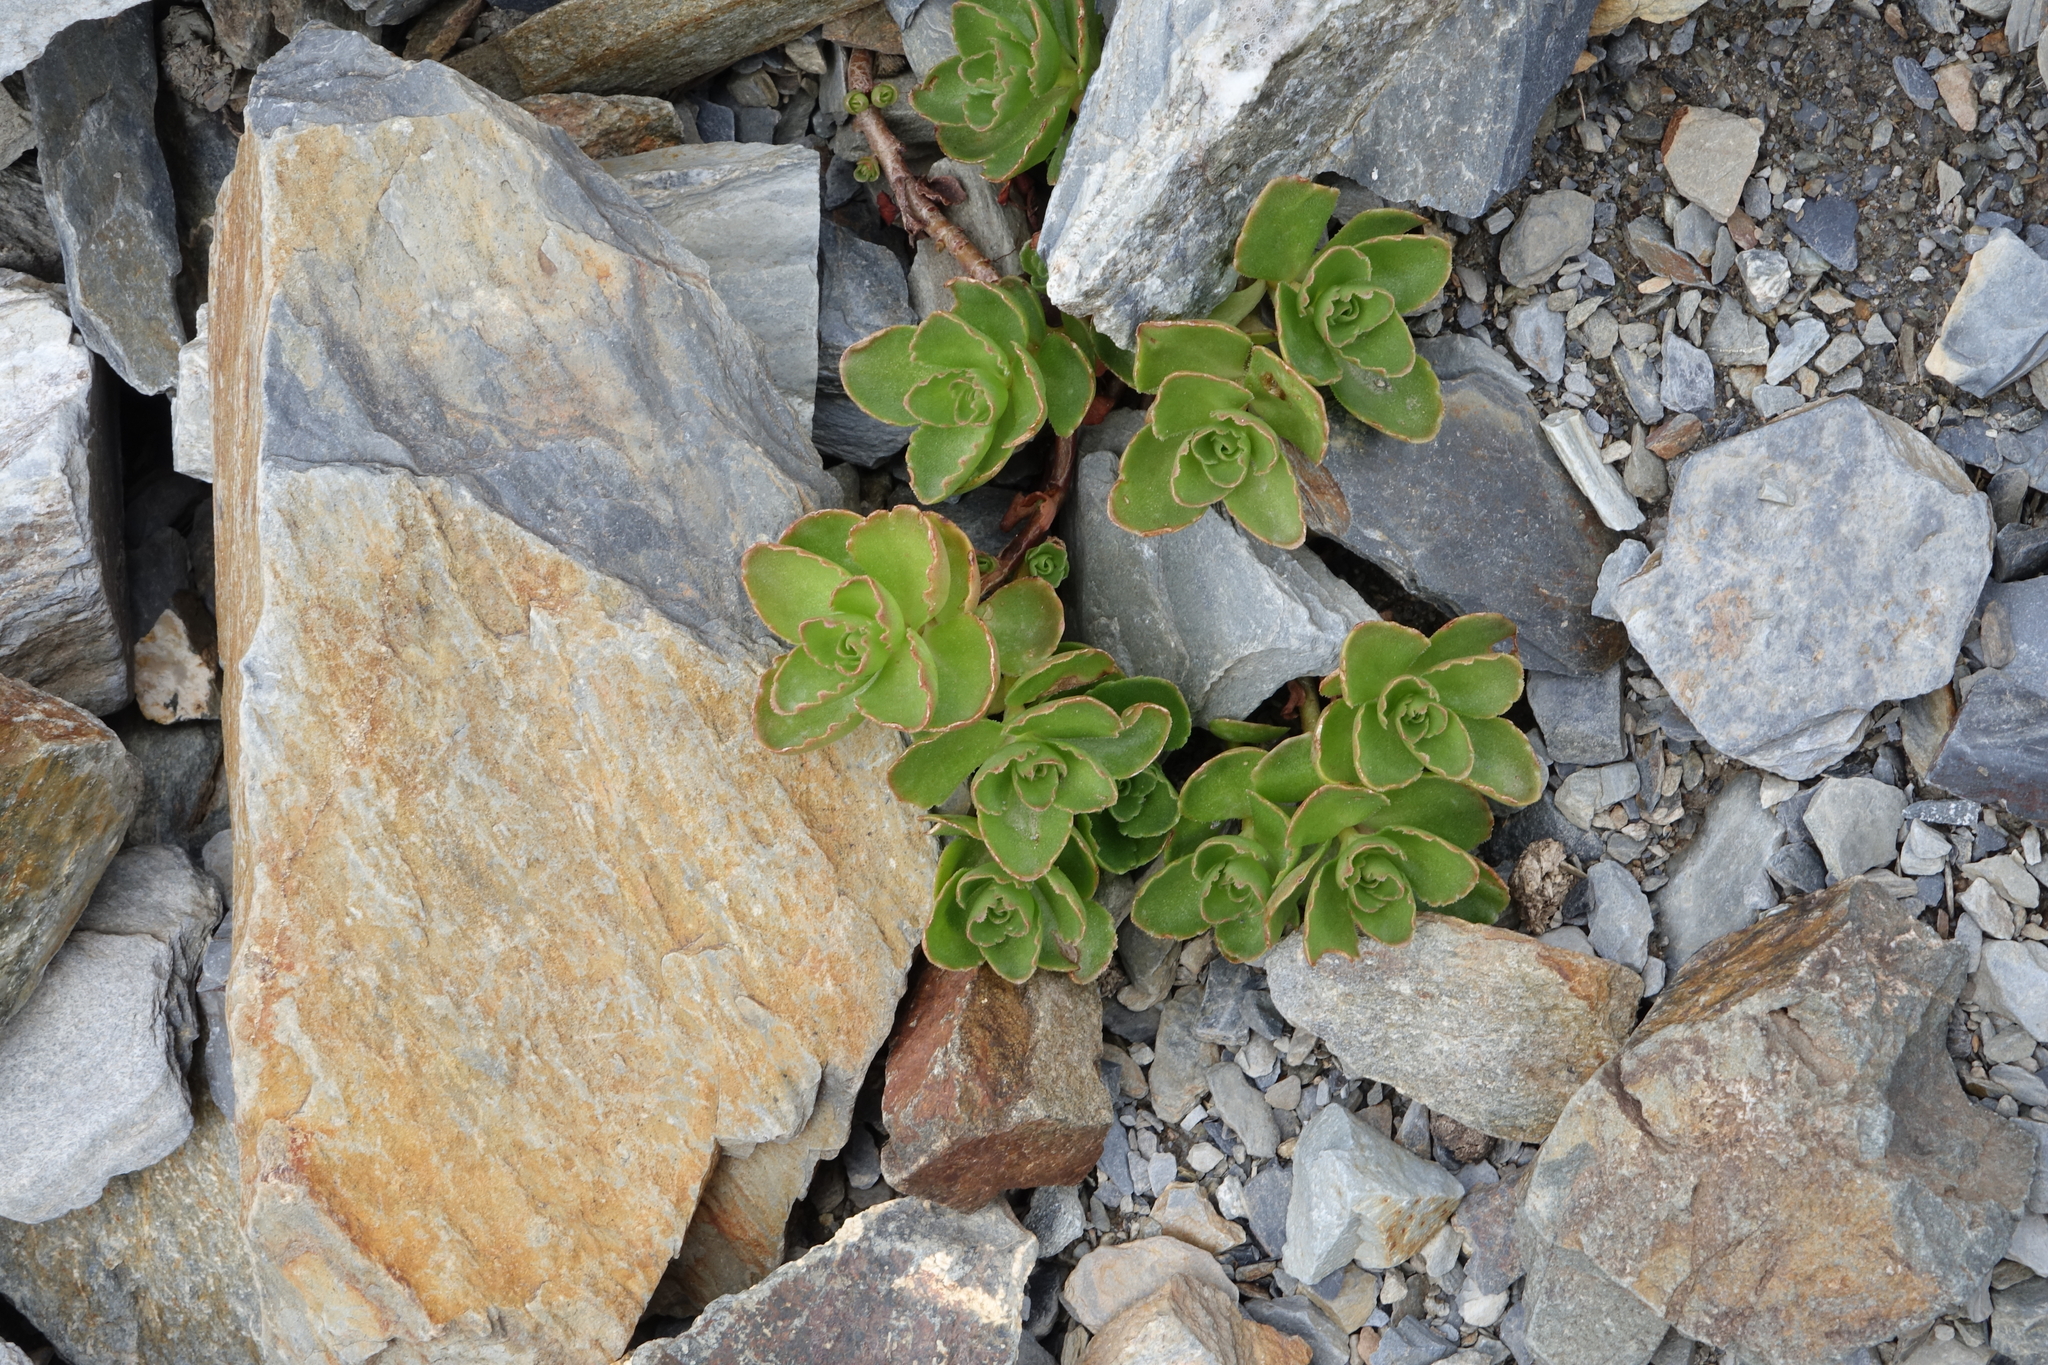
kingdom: Plantae
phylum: Tracheophyta
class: Magnoliopsida
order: Saxifragales
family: Crassulaceae
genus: Phedimus
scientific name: Phedimus spurius
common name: Caucasian stonecrop
